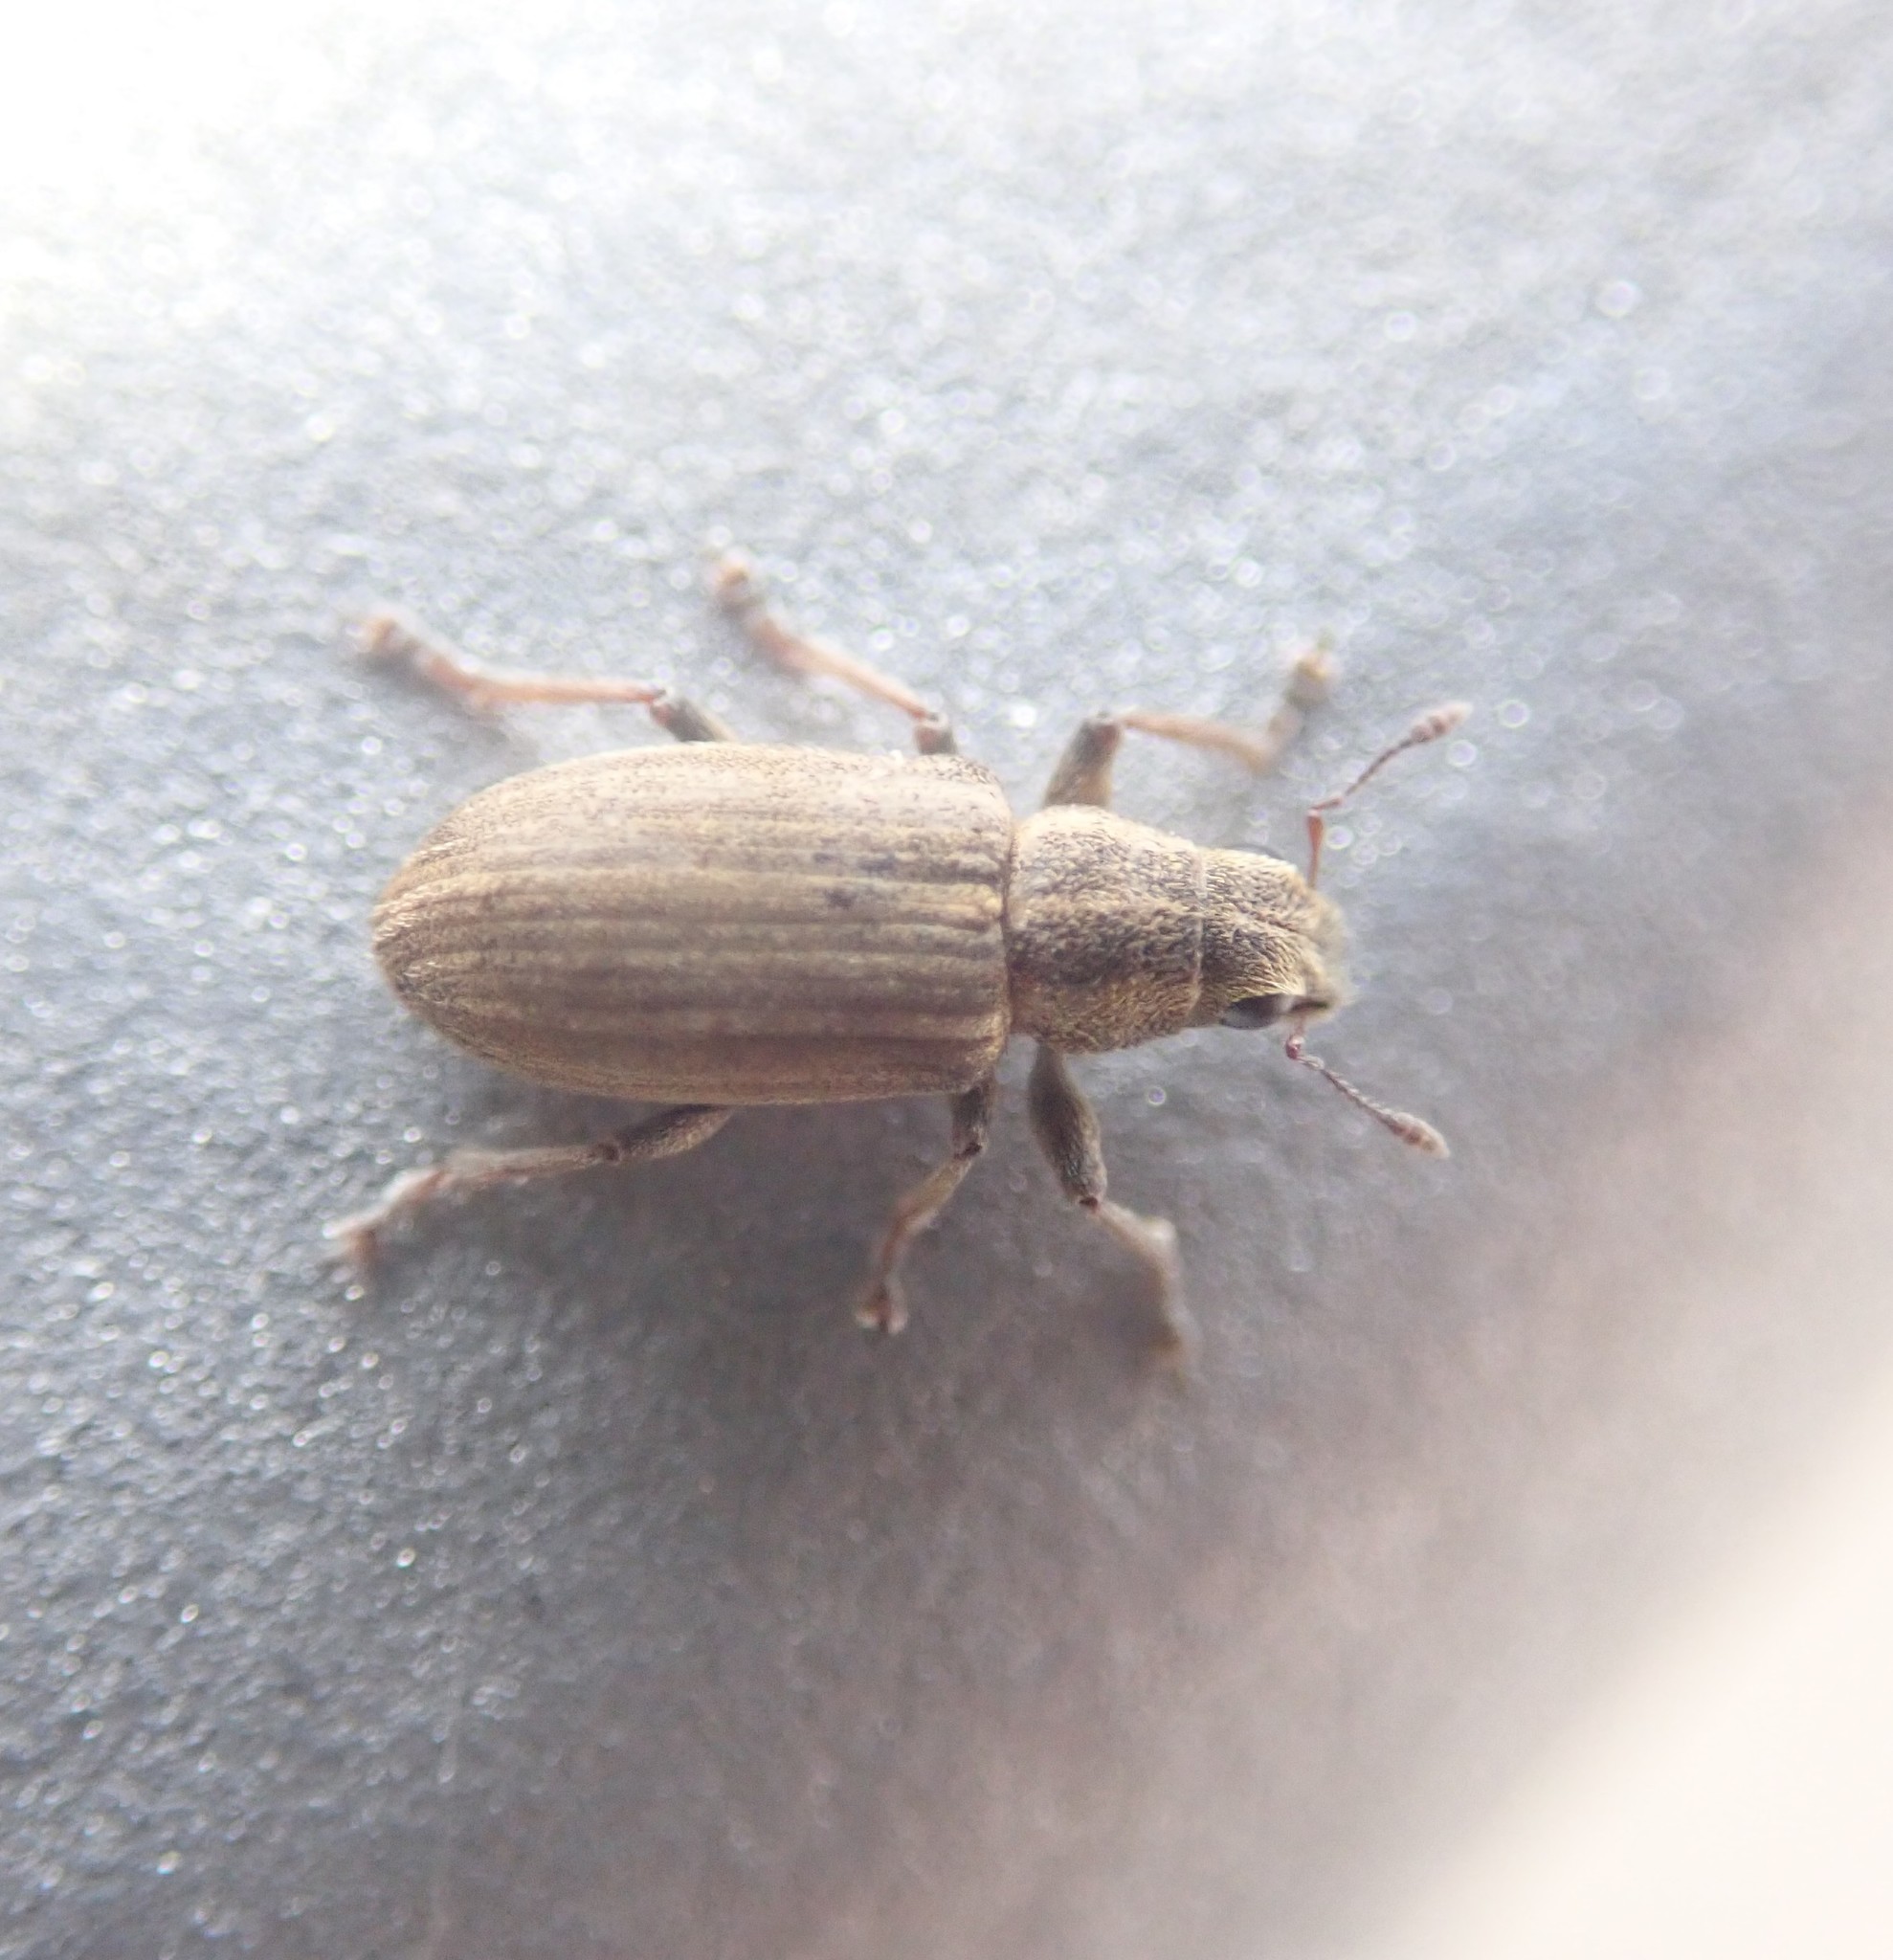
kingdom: Animalia
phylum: Arthropoda
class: Insecta
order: Coleoptera
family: Curculionidae
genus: Sitona
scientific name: Sitona lineatus
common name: Weevil
